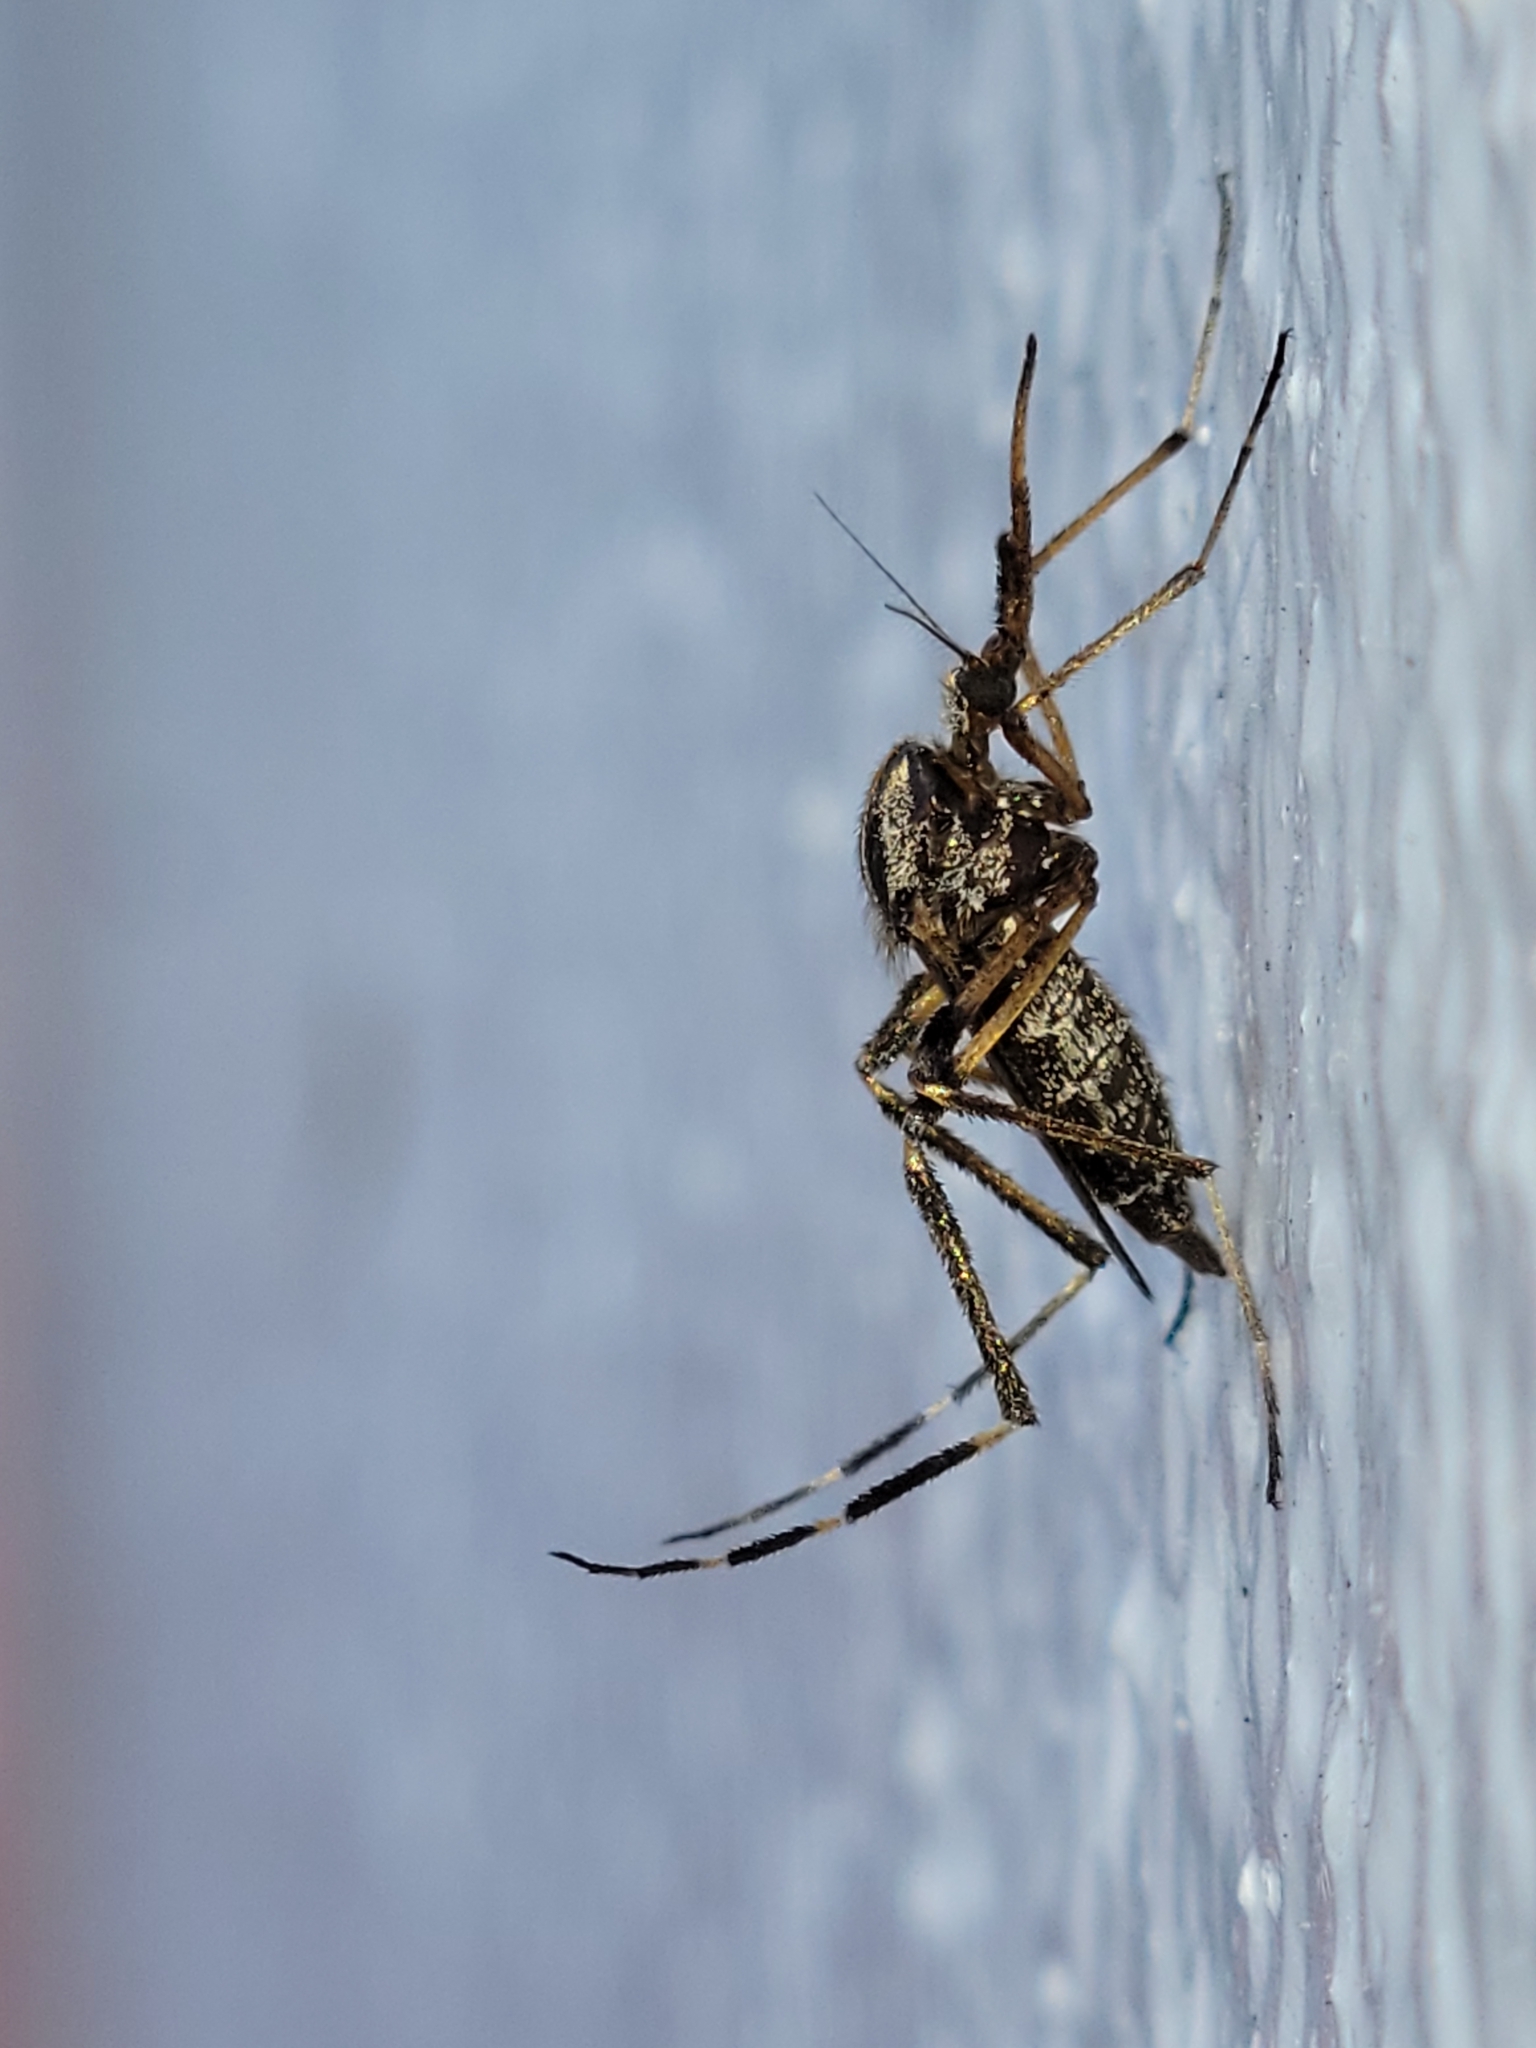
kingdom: Animalia
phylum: Arthropoda
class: Insecta
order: Diptera
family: Culicidae
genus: Psorophora
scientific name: Psorophora ciliata
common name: Gallinipper
